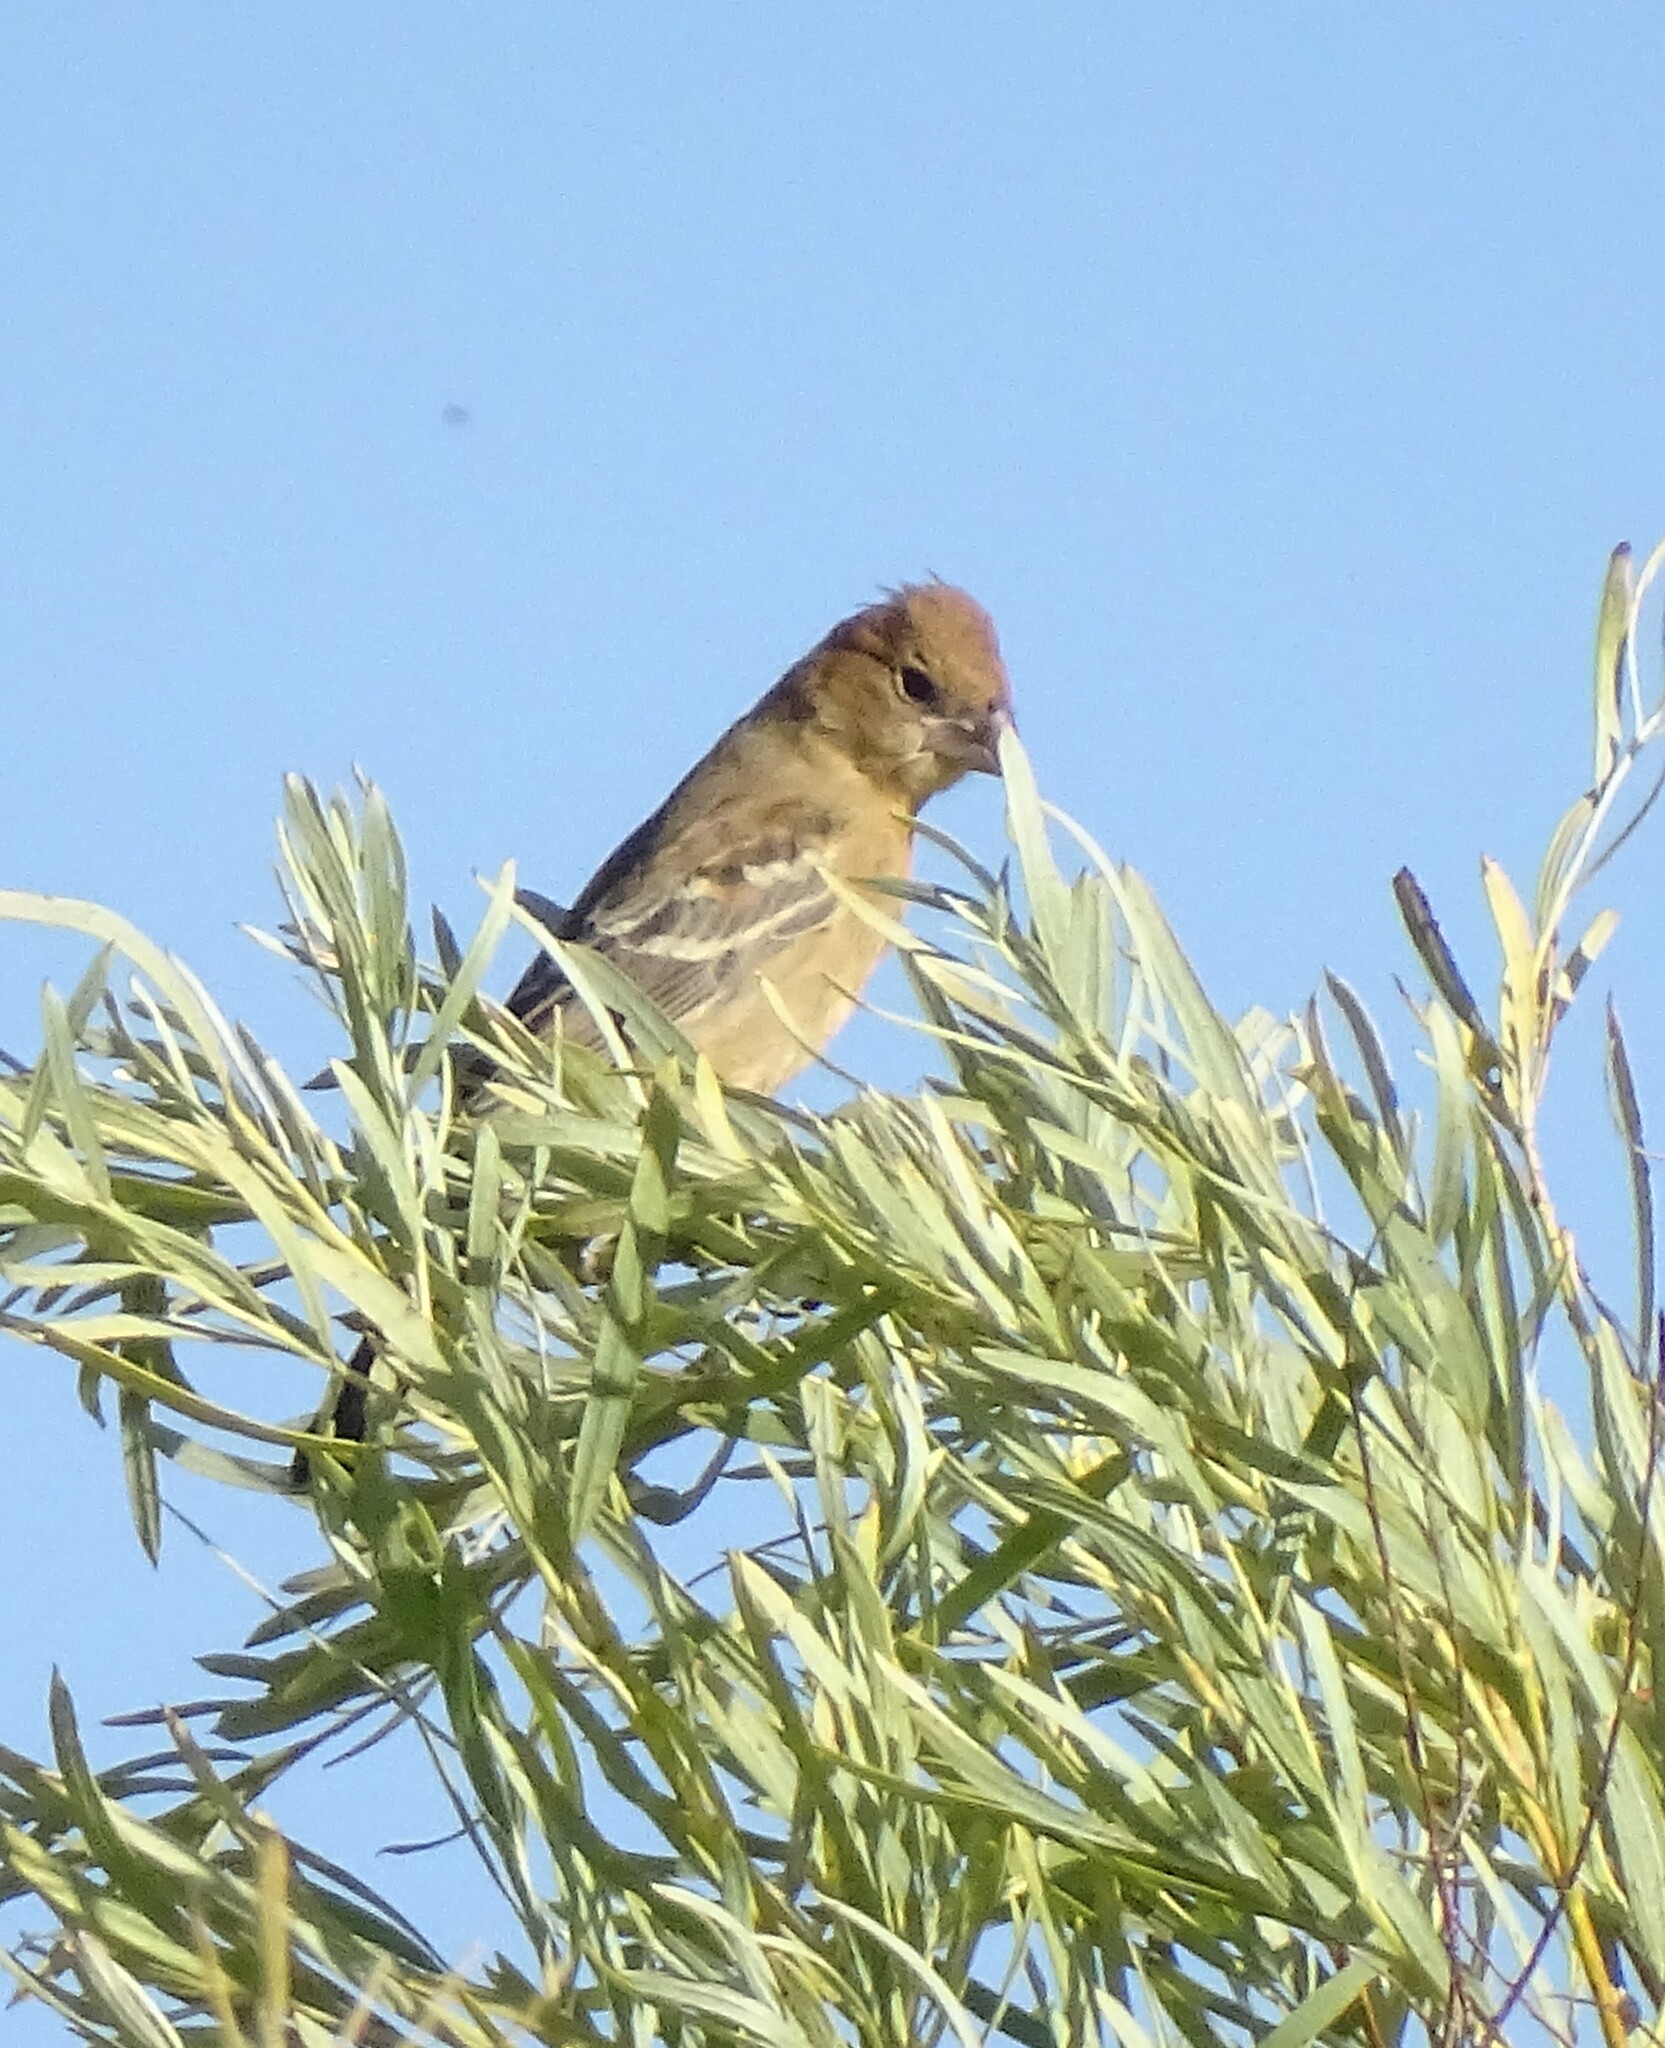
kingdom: Animalia
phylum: Chordata
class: Aves
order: Passeriformes
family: Cardinalidae
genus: Passerina
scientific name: Passerina caerulea
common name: Blue grosbeak
